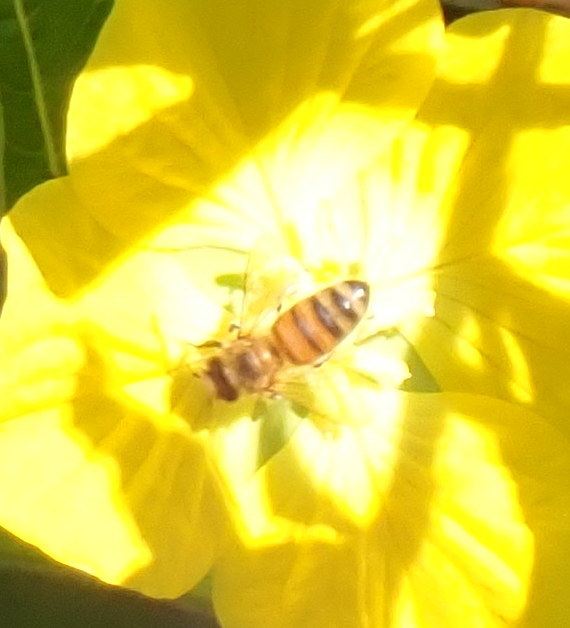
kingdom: Animalia
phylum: Arthropoda
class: Insecta
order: Hymenoptera
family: Apidae
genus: Apis
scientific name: Apis mellifera
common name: Honey bee
